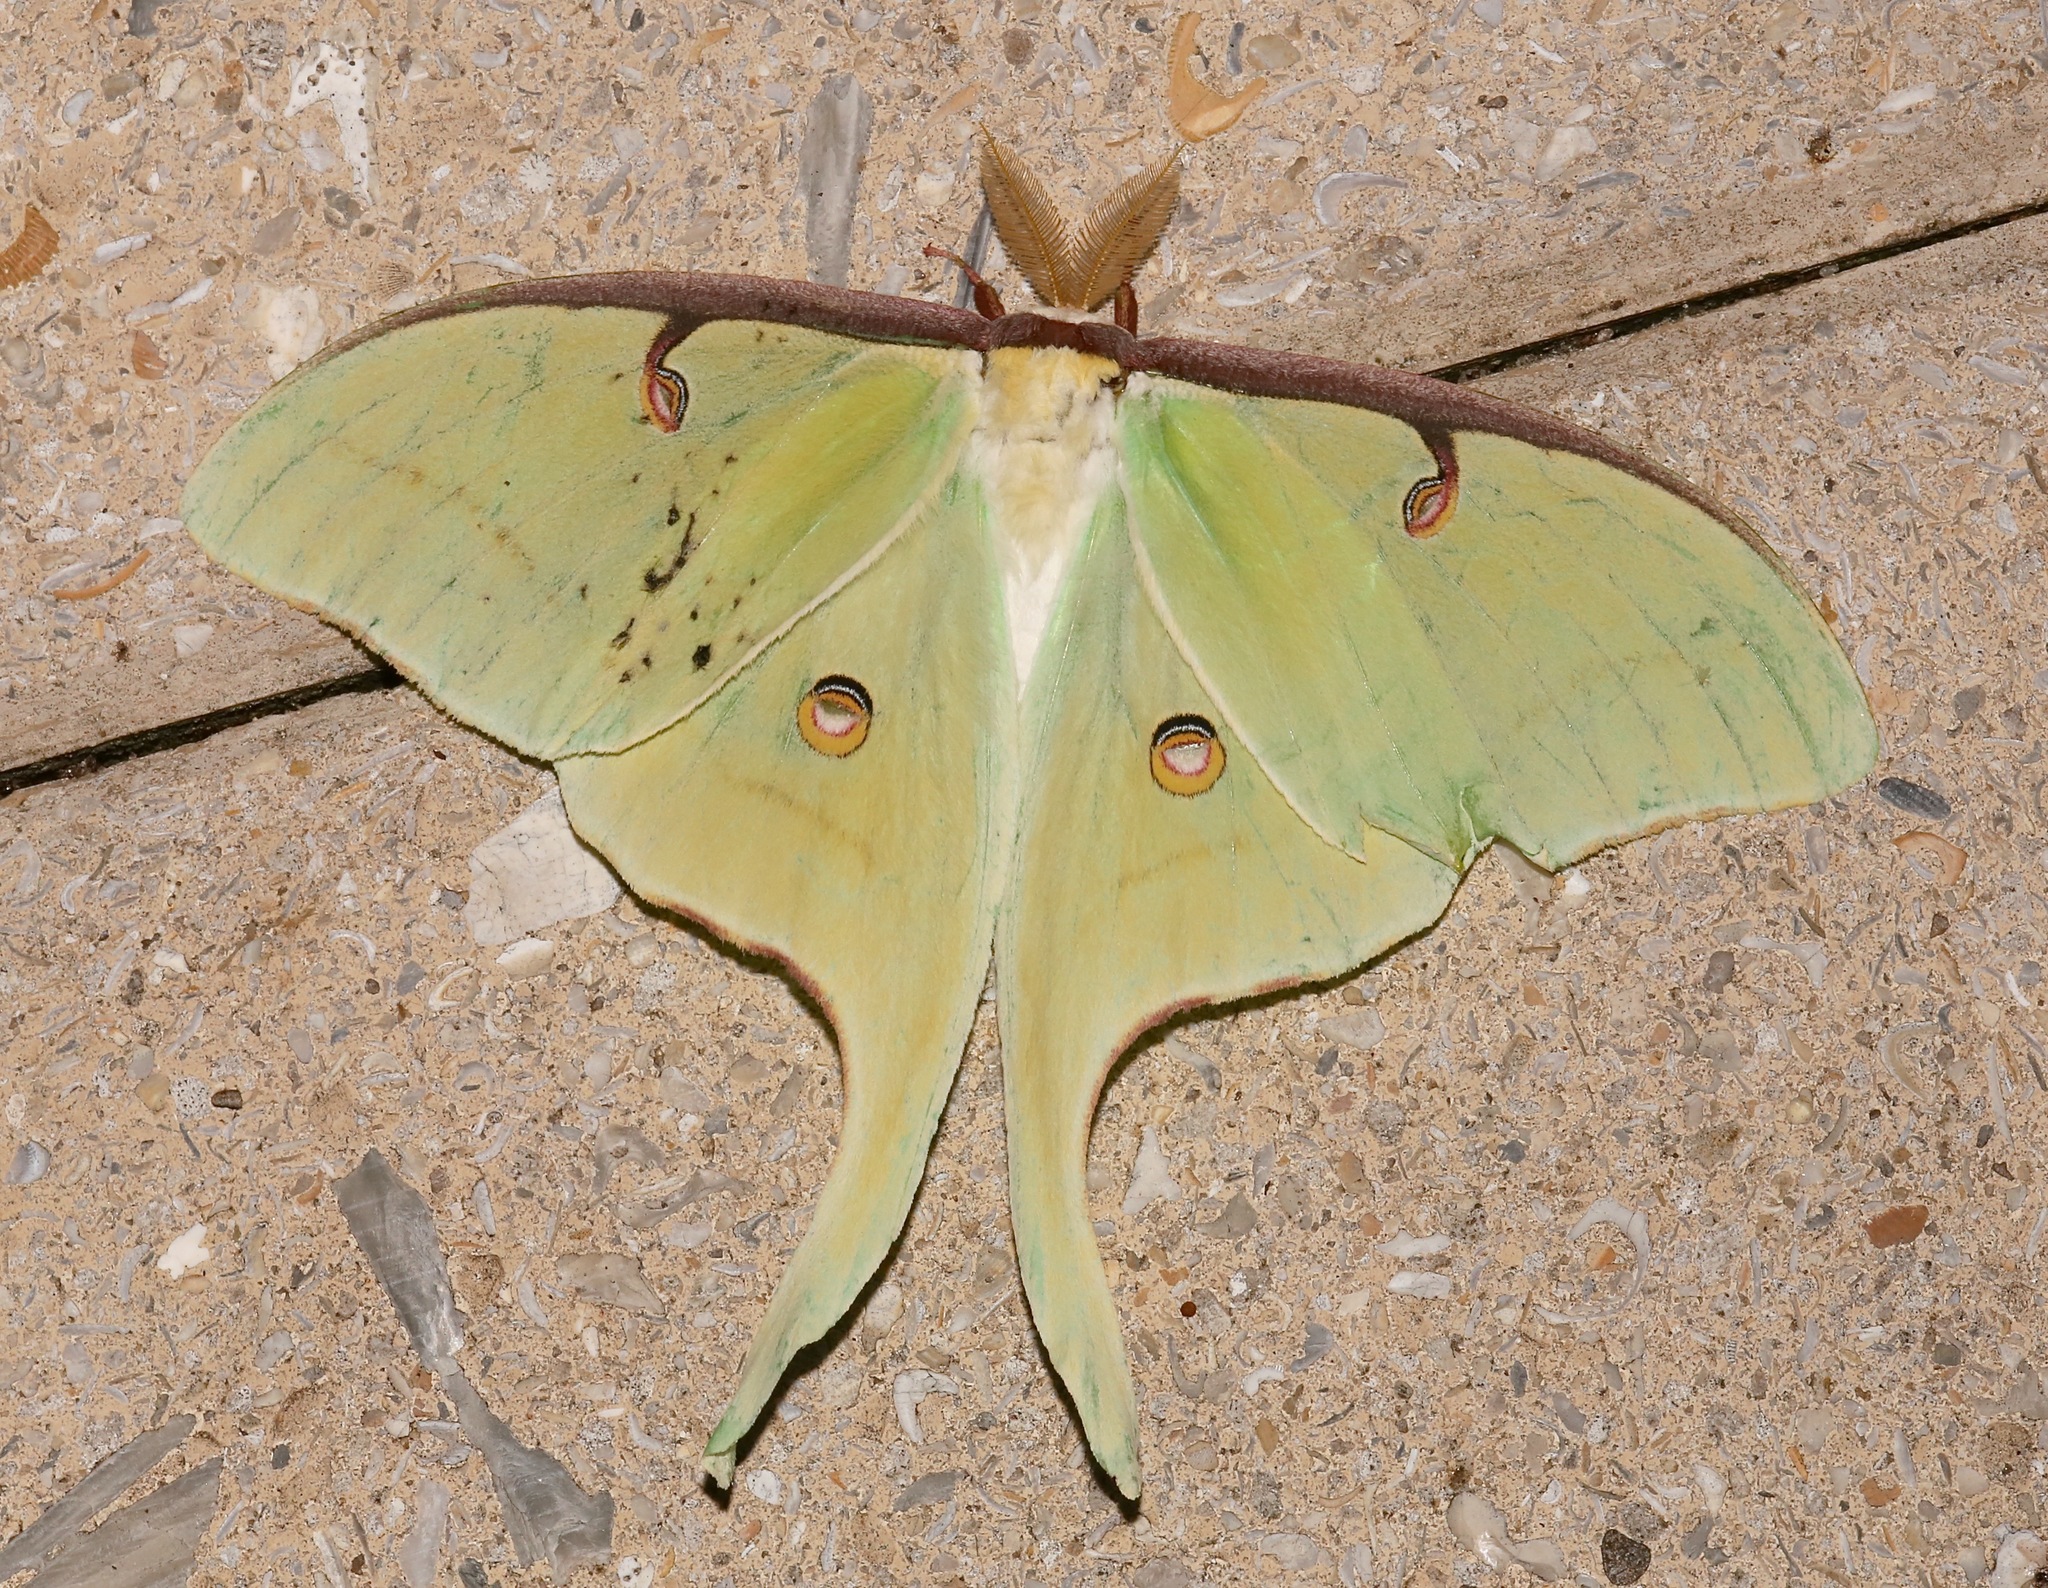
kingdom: Animalia
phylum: Arthropoda
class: Insecta
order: Lepidoptera
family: Saturniidae
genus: Actias
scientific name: Actias luna
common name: Luna moth
